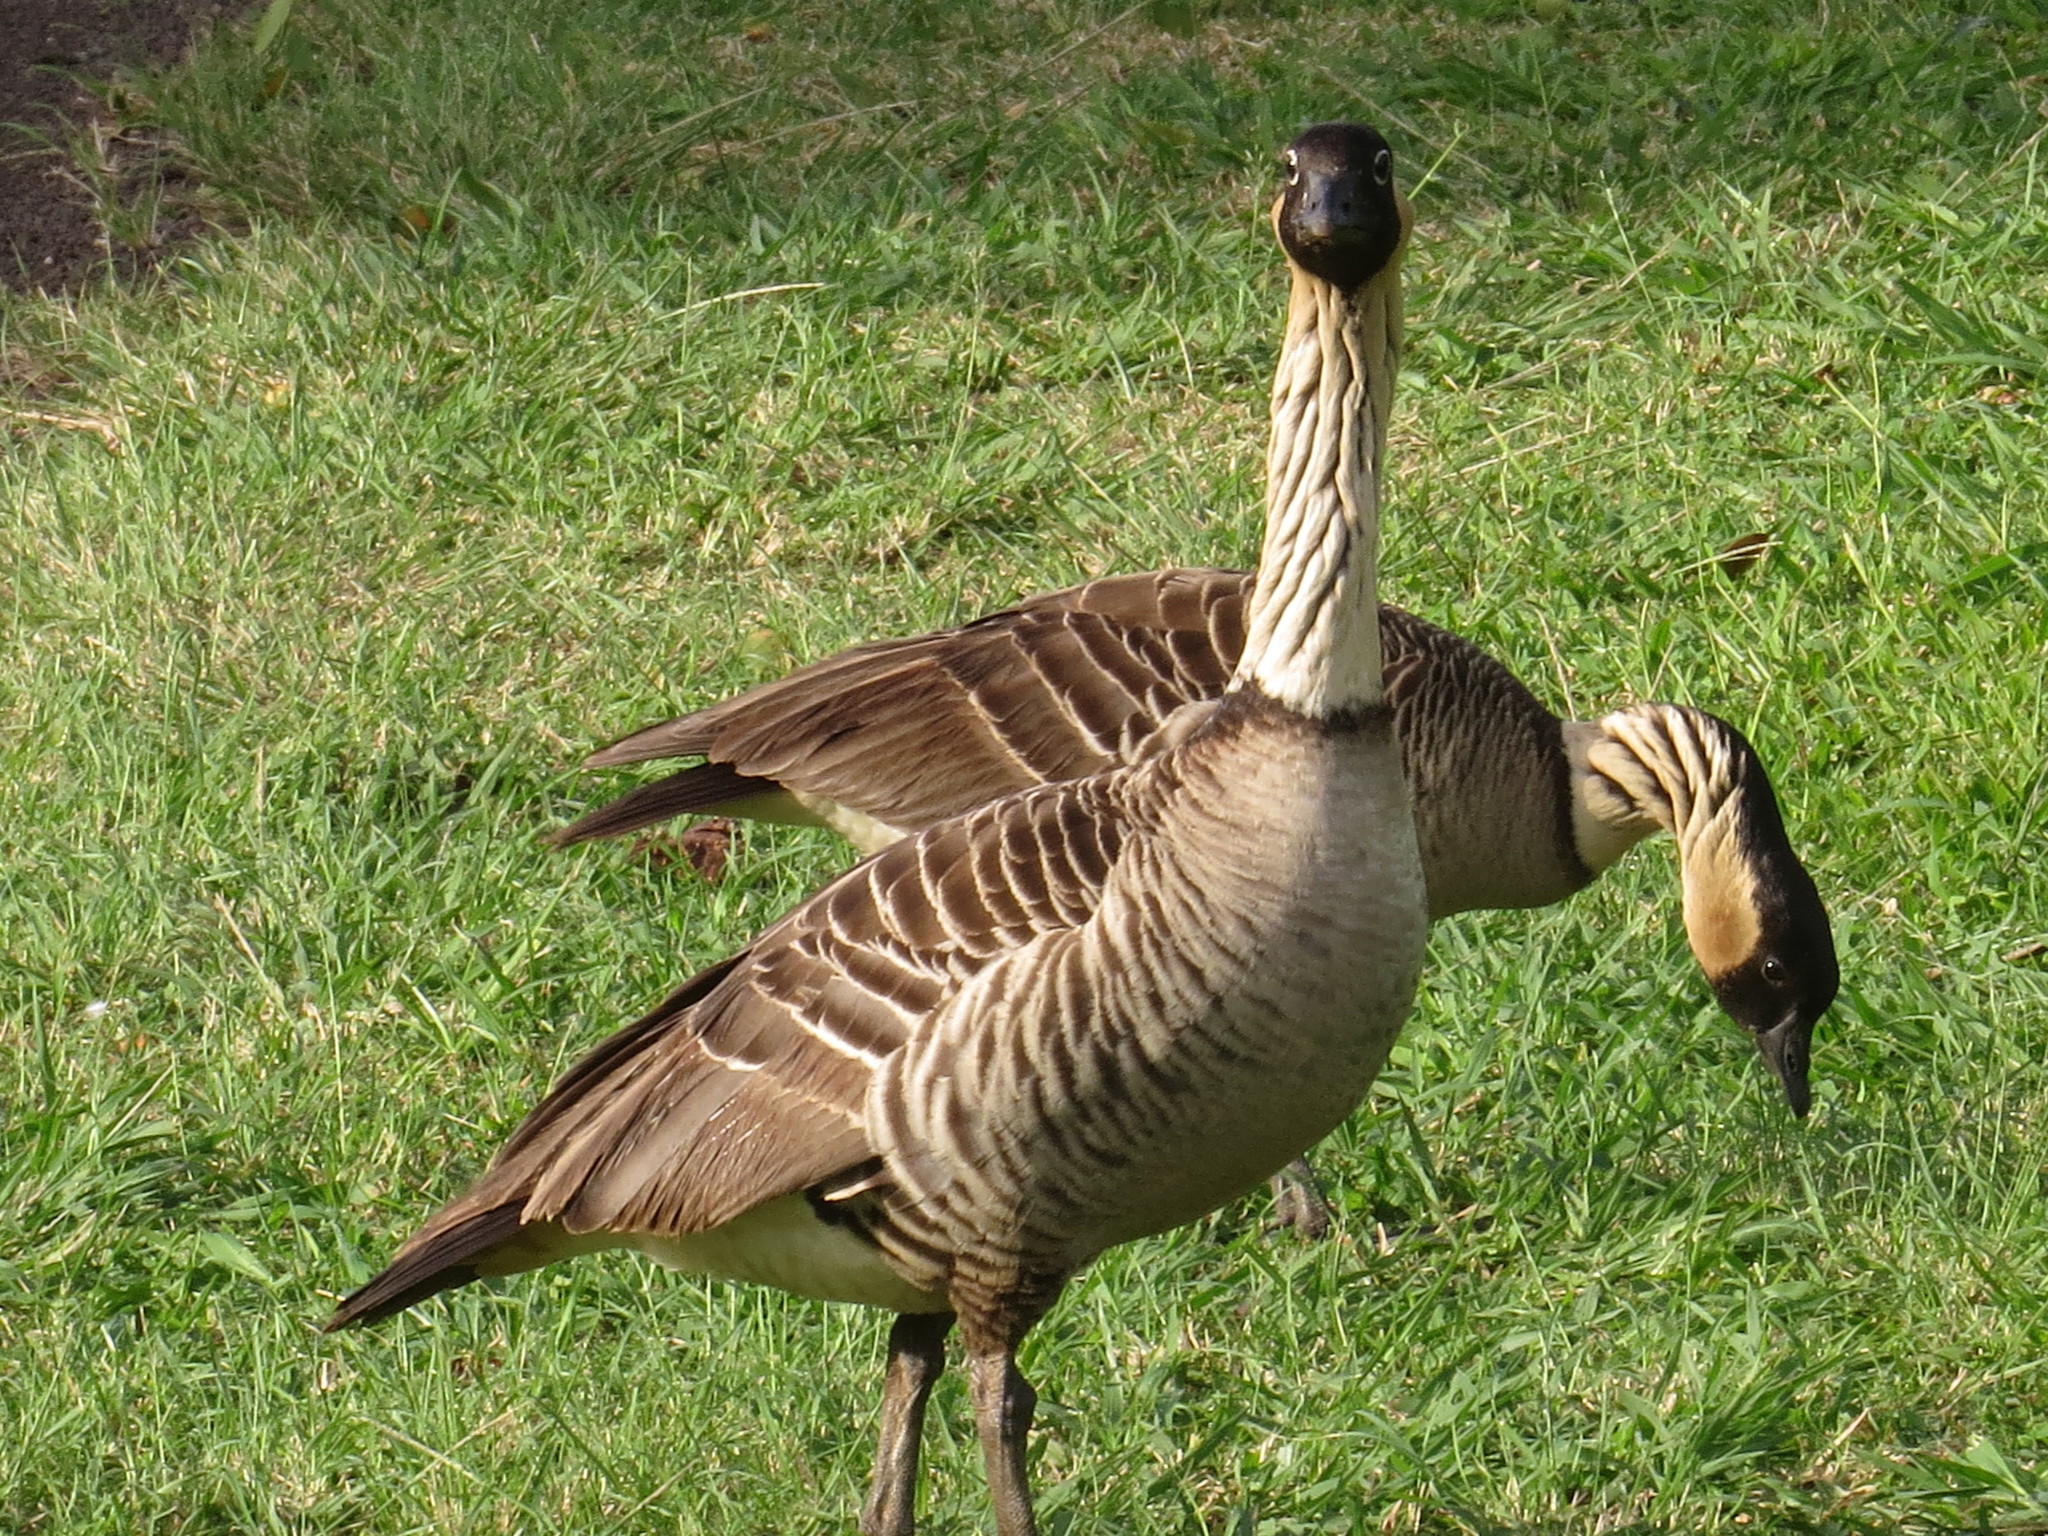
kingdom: Animalia
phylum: Chordata
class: Aves
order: Anseriformes
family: Anatidae
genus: Branta
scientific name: Branta sandvicensis
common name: Nene
